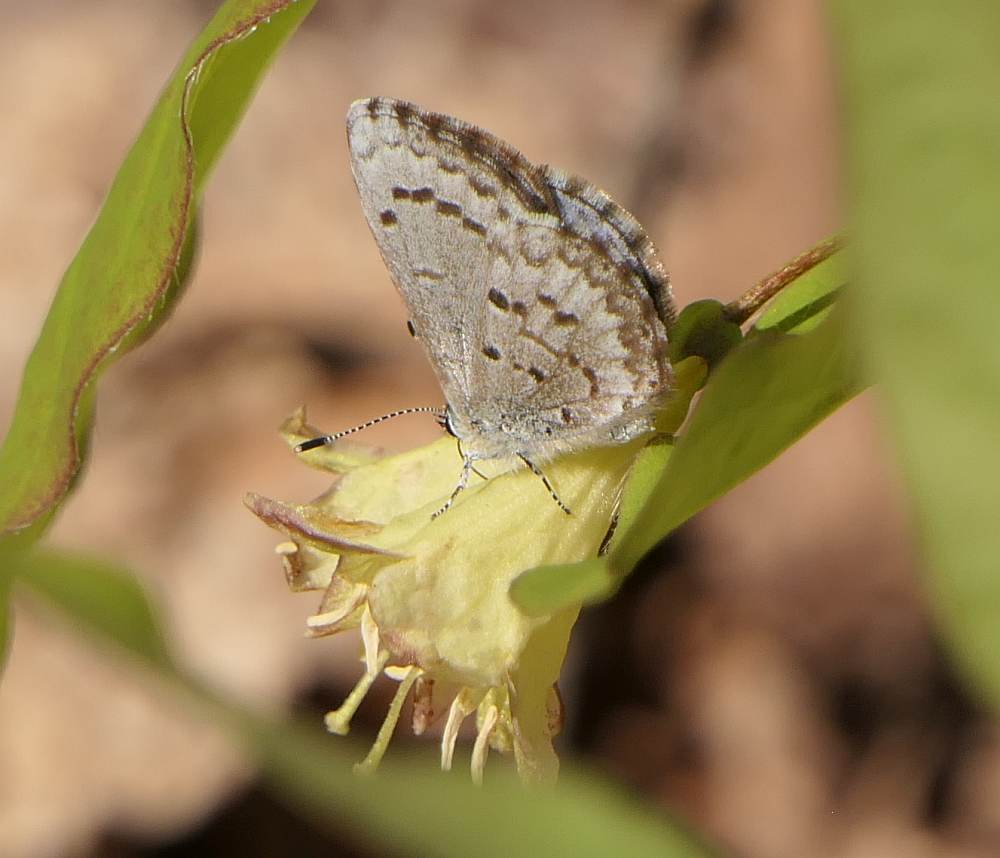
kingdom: Animalia
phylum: Arthropoda
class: Insecta
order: Lepidoptera
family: Lycaenidae
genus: Celastrina
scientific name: Celastrina lucia
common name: Lucia azure
